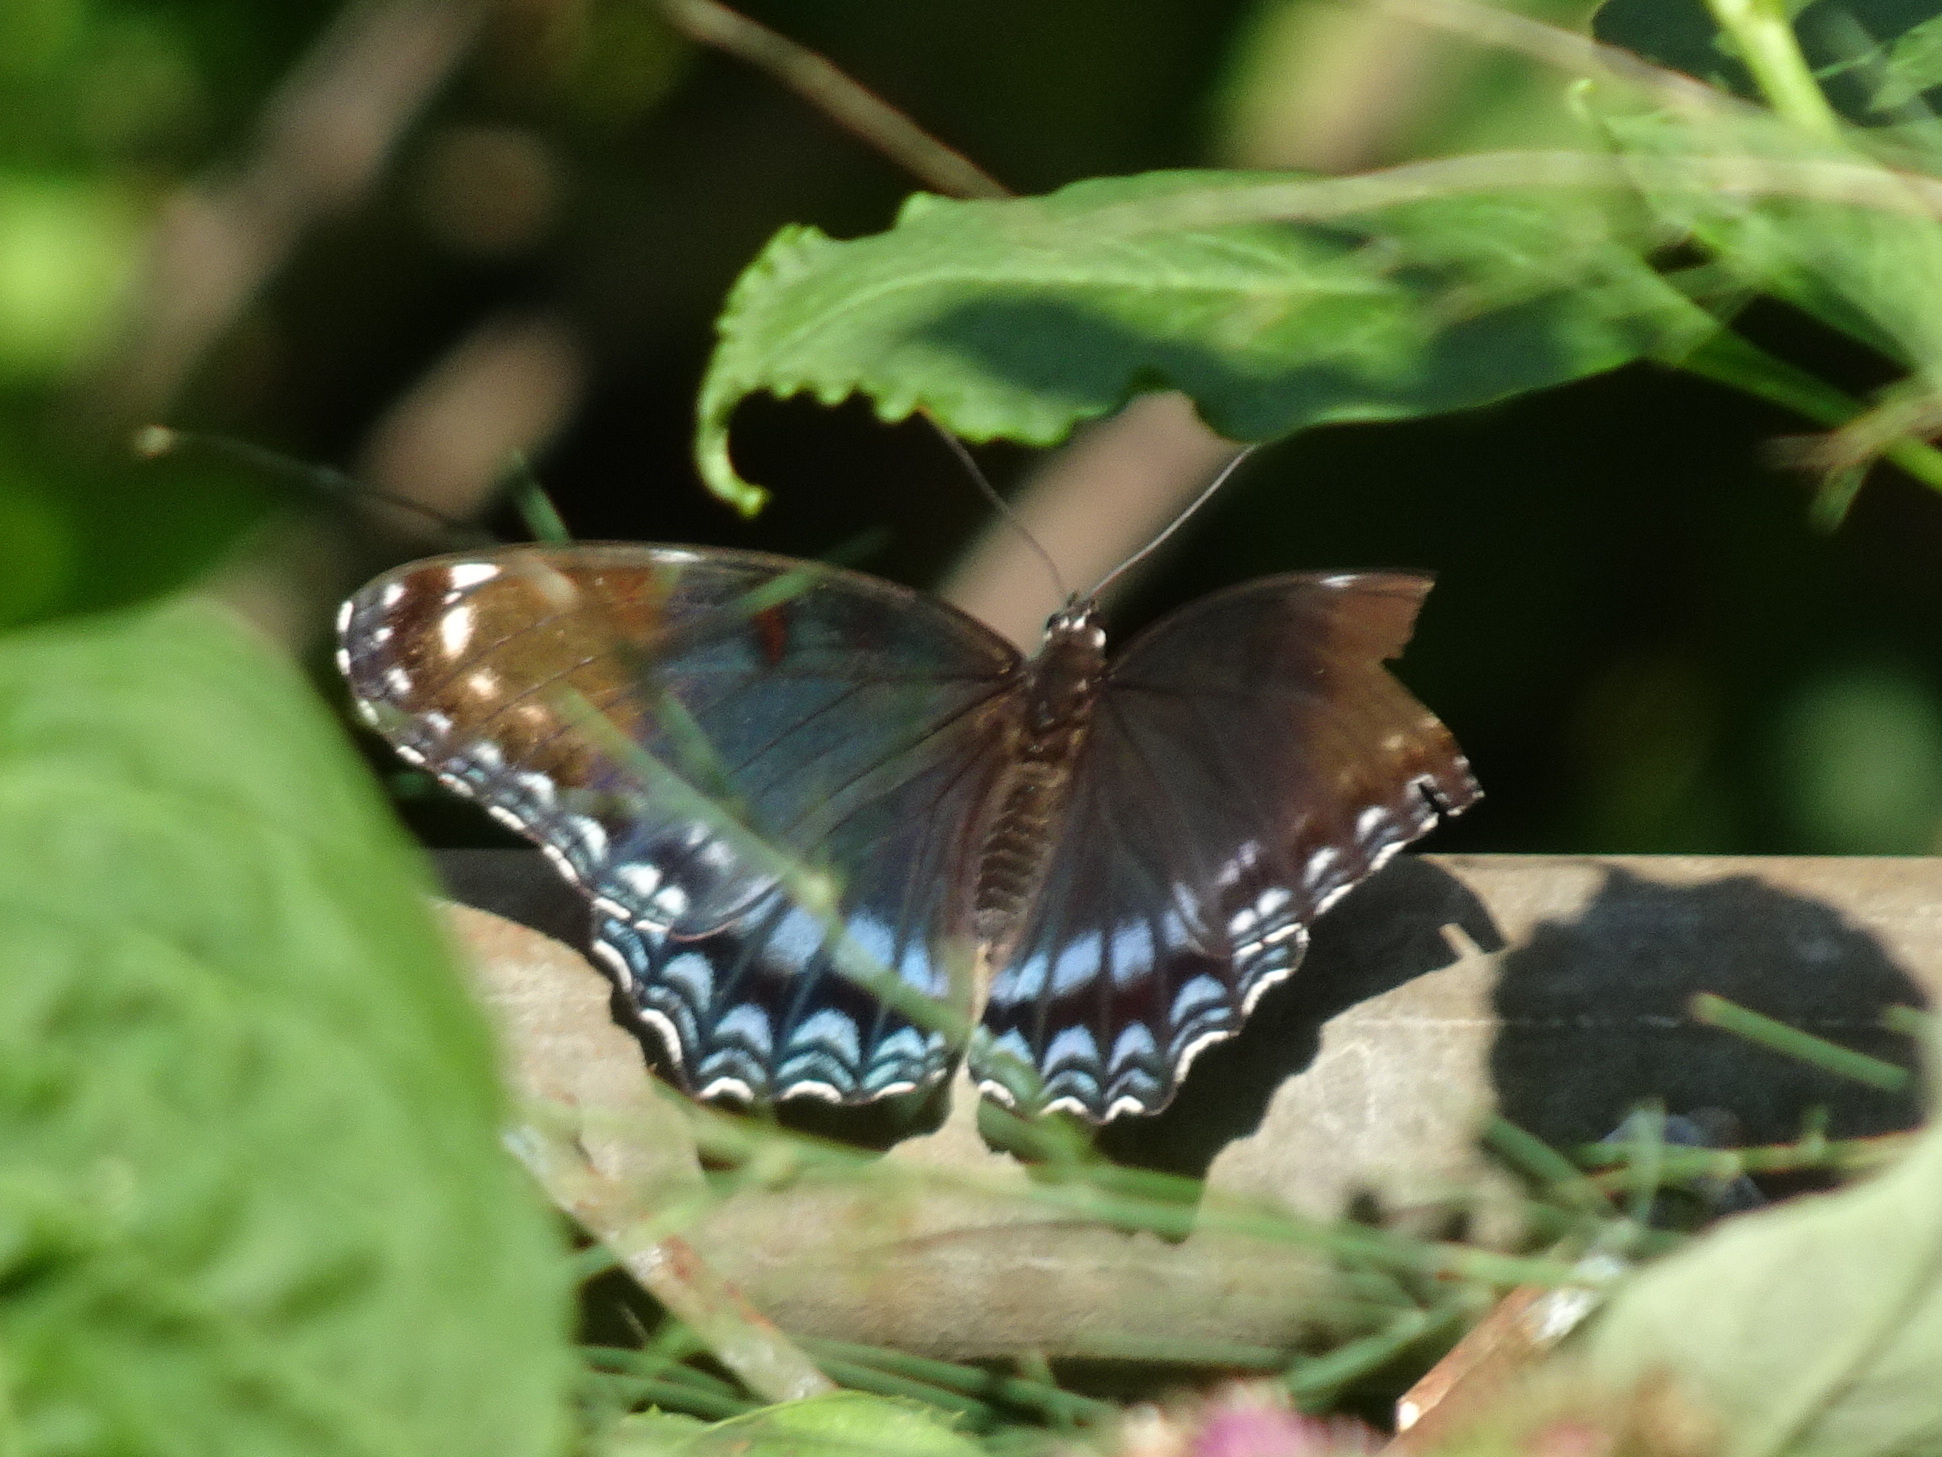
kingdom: Animalia
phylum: Arthropoda
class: Insecta
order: Lepidoptera
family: Nymphalidae
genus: Limenitis
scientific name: Limenitis arthemis
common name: Red-spotted admiral
